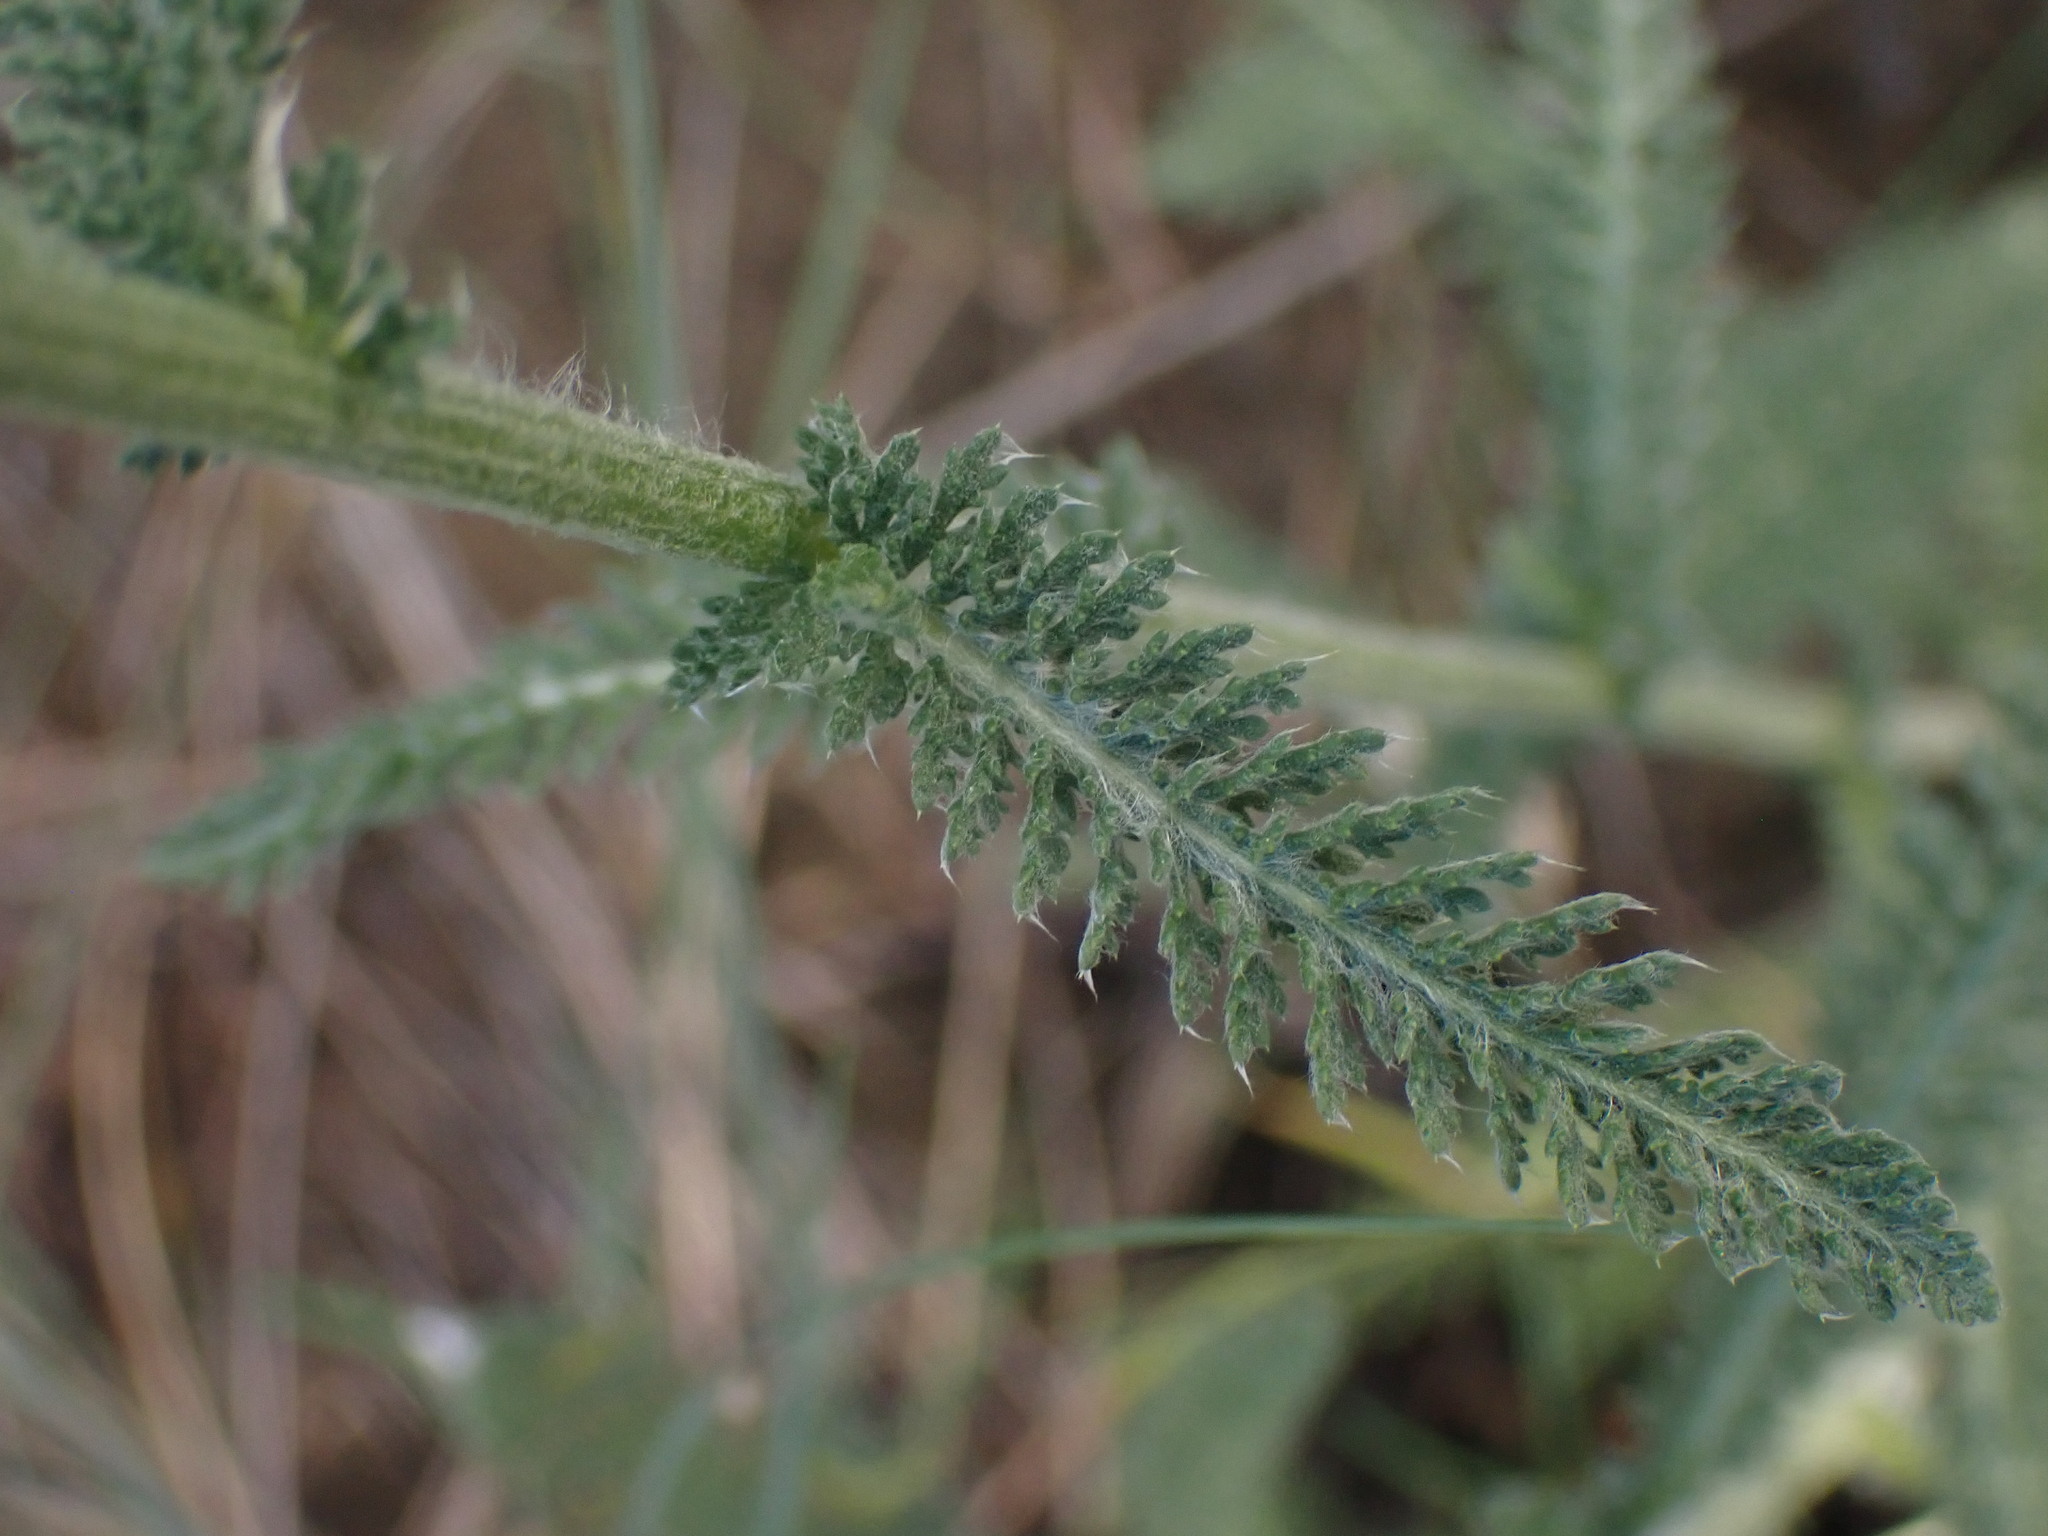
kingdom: Plantae
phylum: Tracheophyta
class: Magnoliopsida
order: Asterales
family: Asteraceae
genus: Achillea
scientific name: Achillea millefolium
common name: Yarrow
